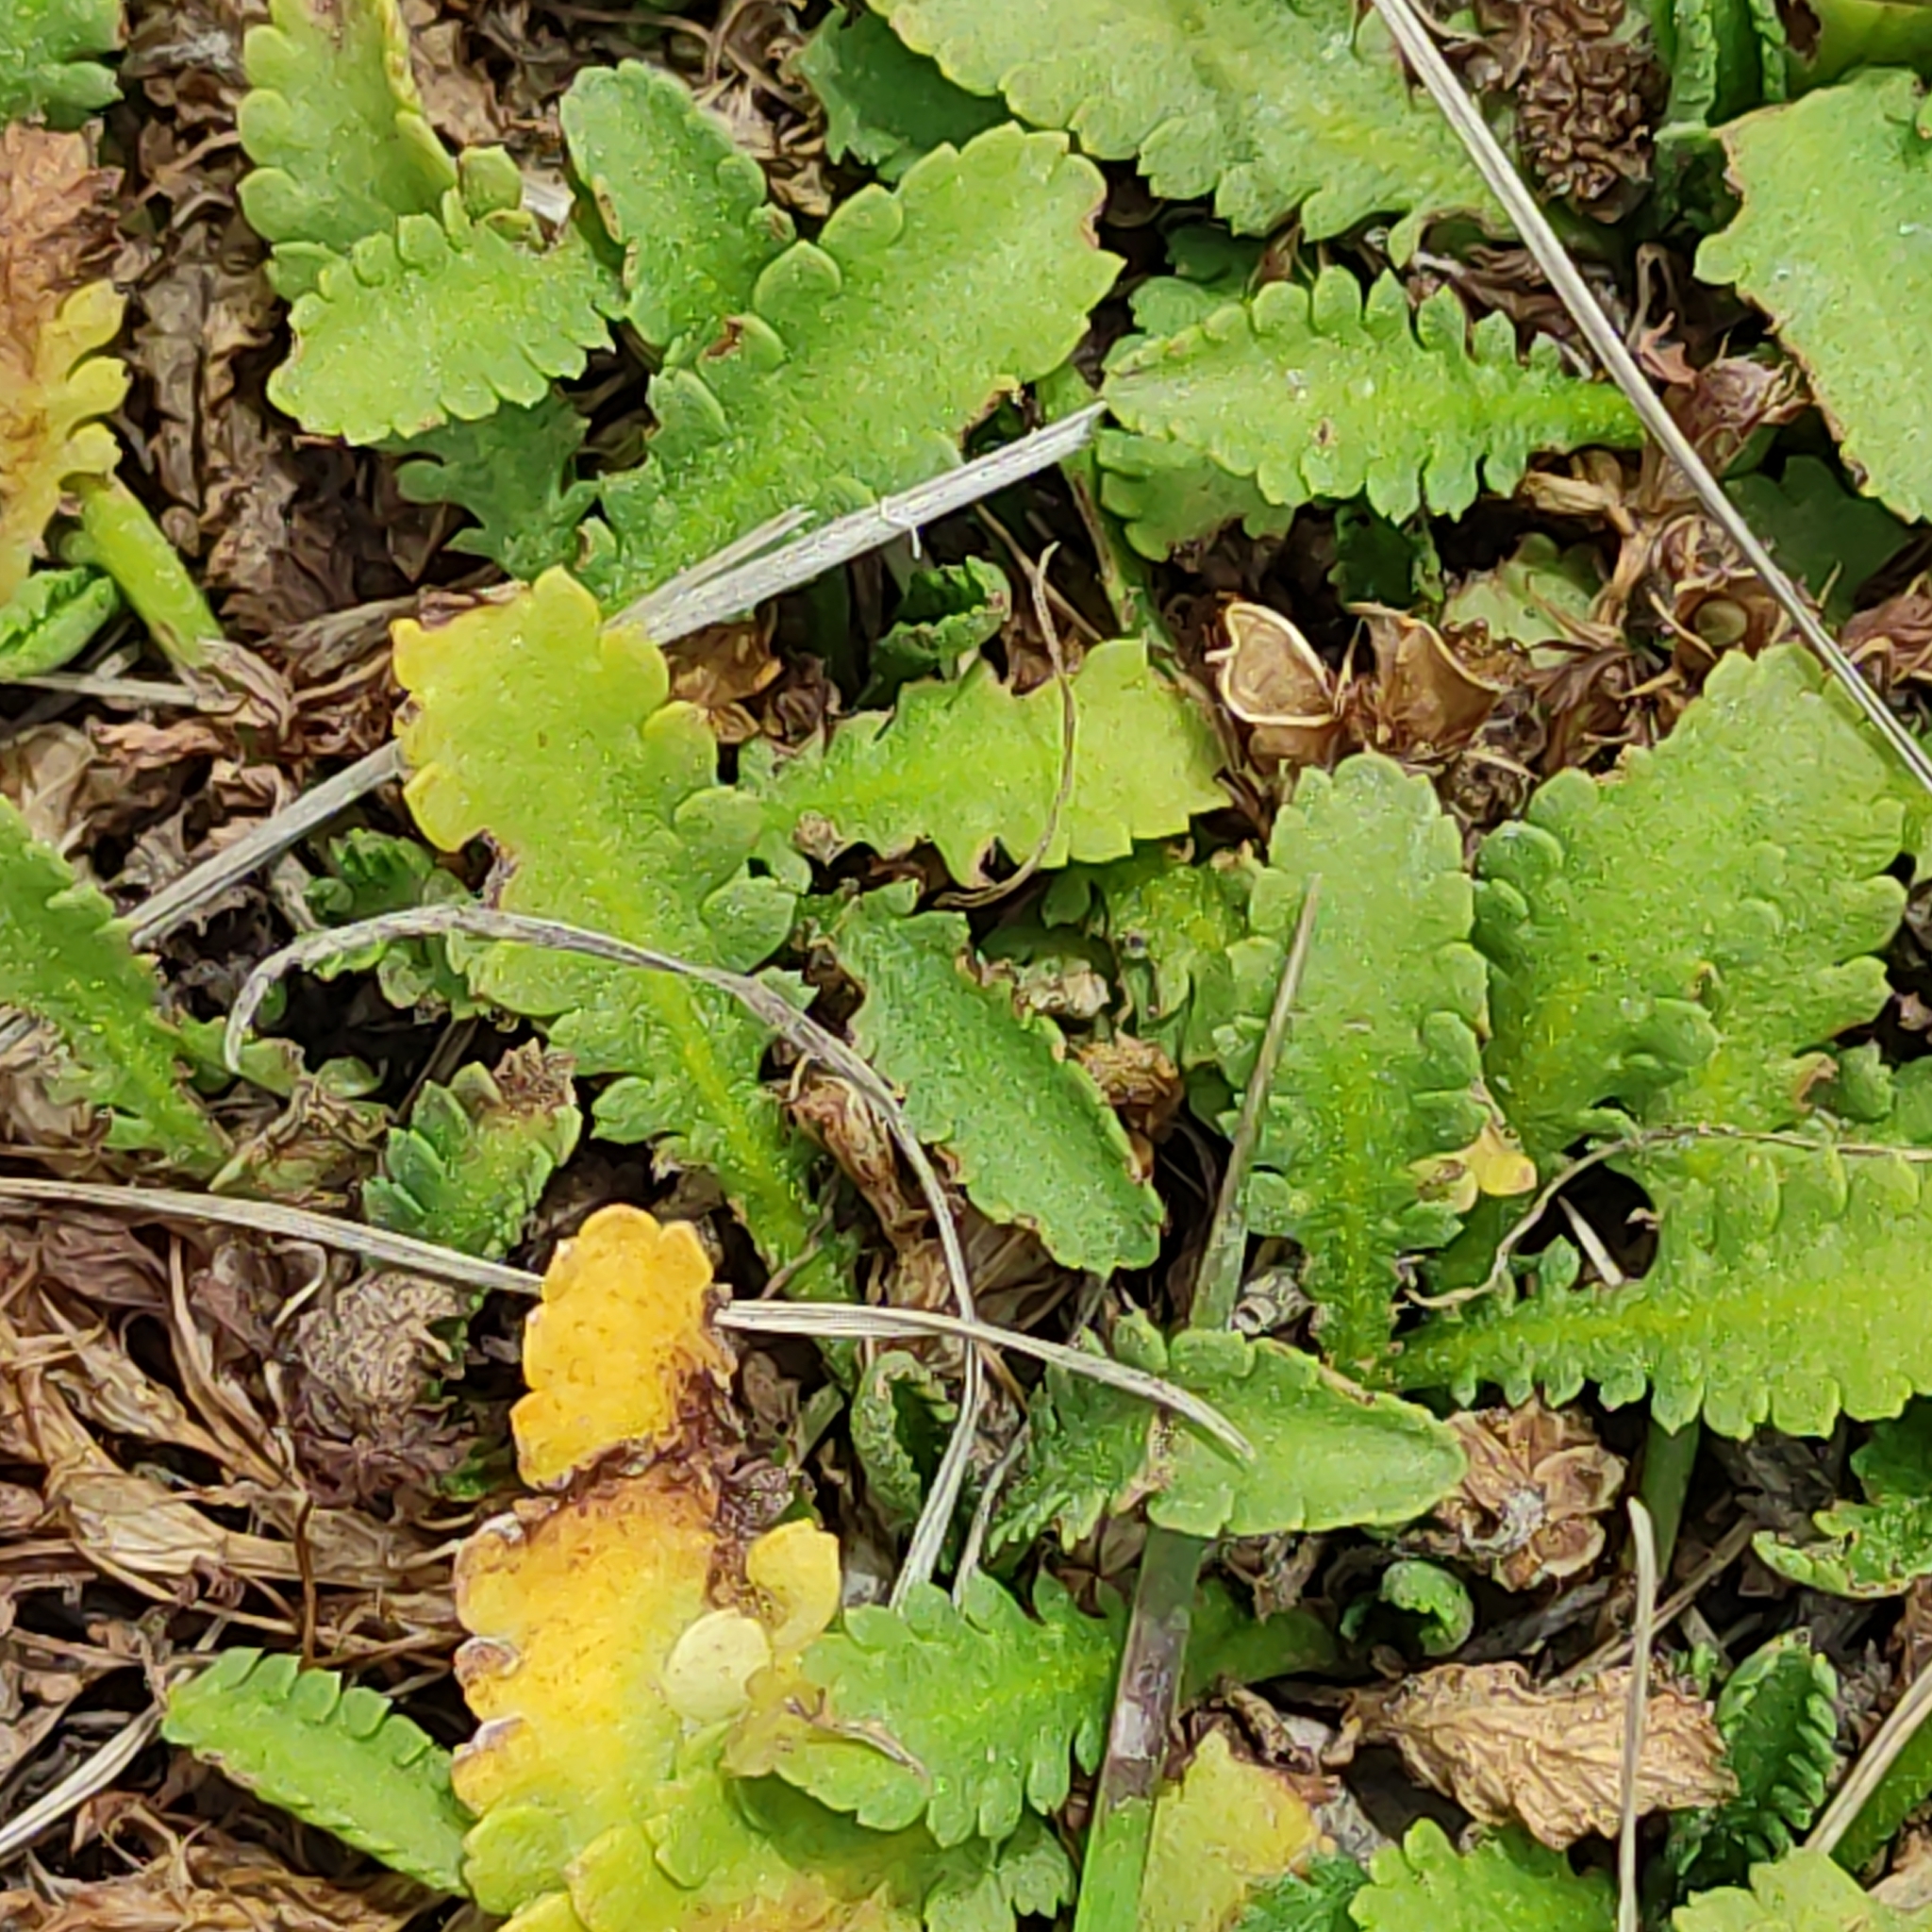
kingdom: Plantae
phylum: Tracheophyta
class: Magnoliopsida
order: Asterales
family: Asteraceae
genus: Leptinella
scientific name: Leptinella dioica
